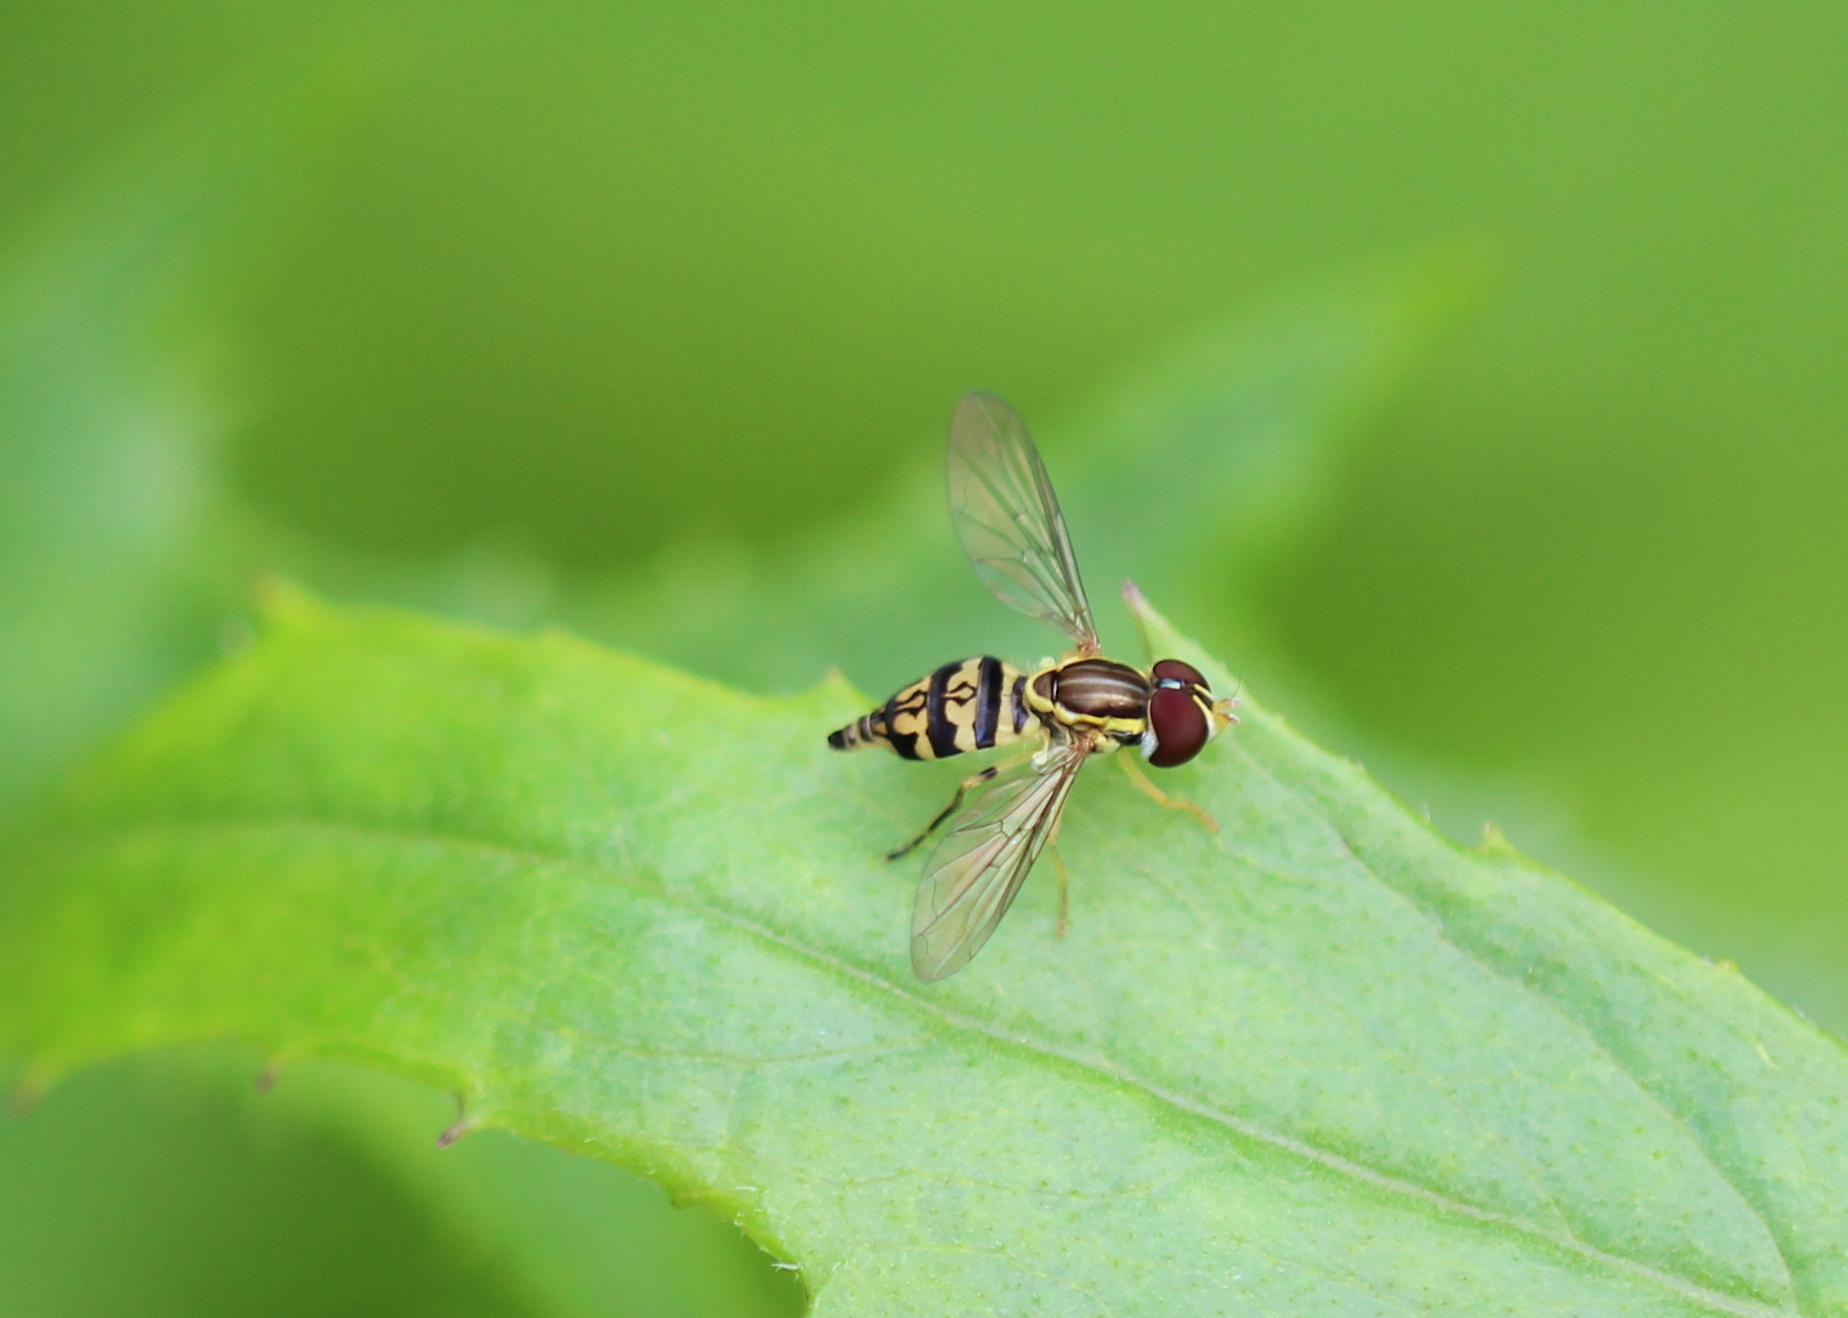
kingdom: Animalia
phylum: Arthropoda
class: Insecta
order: Diptera
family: Syrphidae
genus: Toxomerus
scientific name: Toxomerus geminatus
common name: Eastern calligrapher
